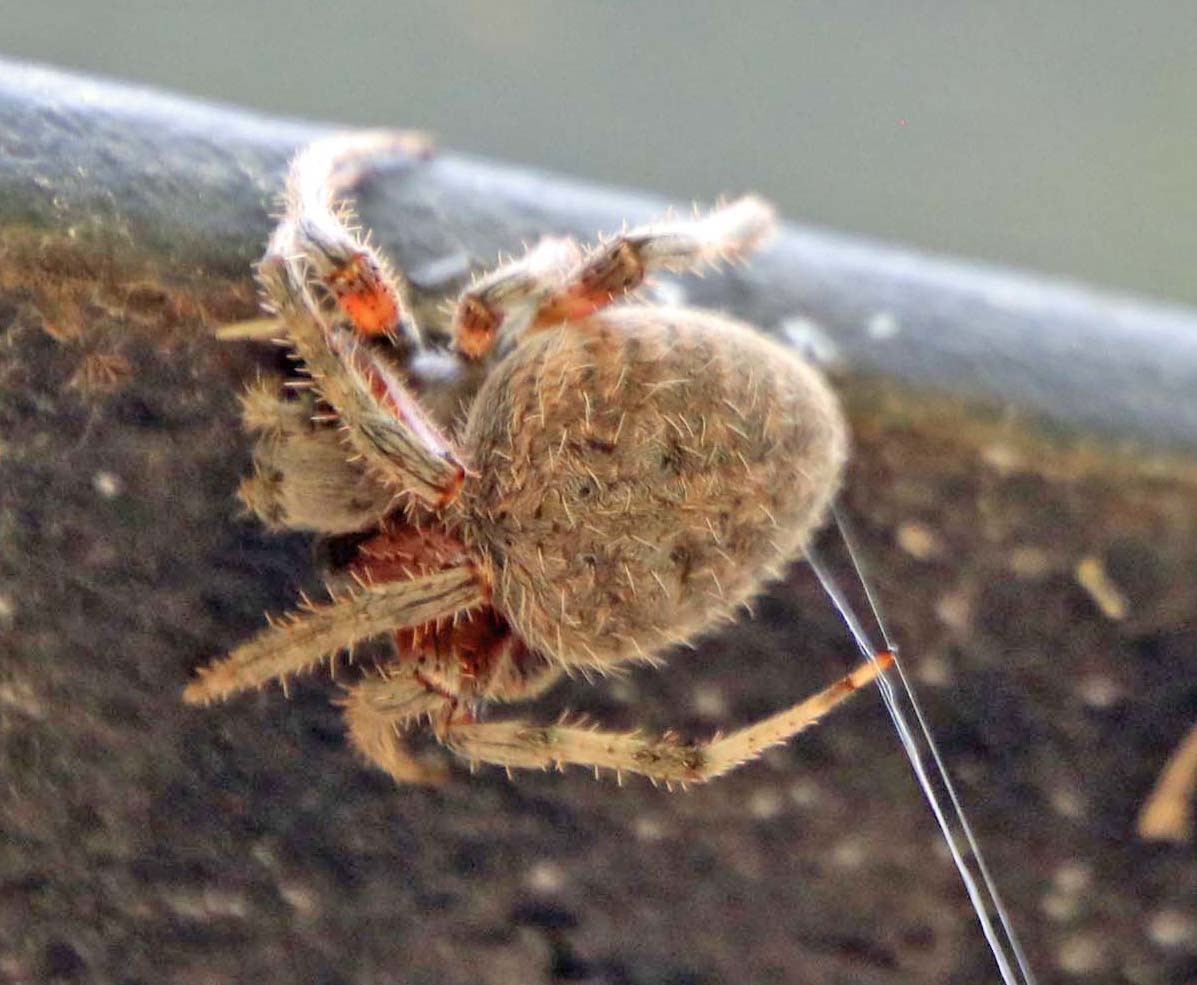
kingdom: Animalia
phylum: Arthropoda
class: Arachnida
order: Araneae
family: Araneidae
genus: Neoscona
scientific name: Neoscona crucifera
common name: Spotted orbweaver
